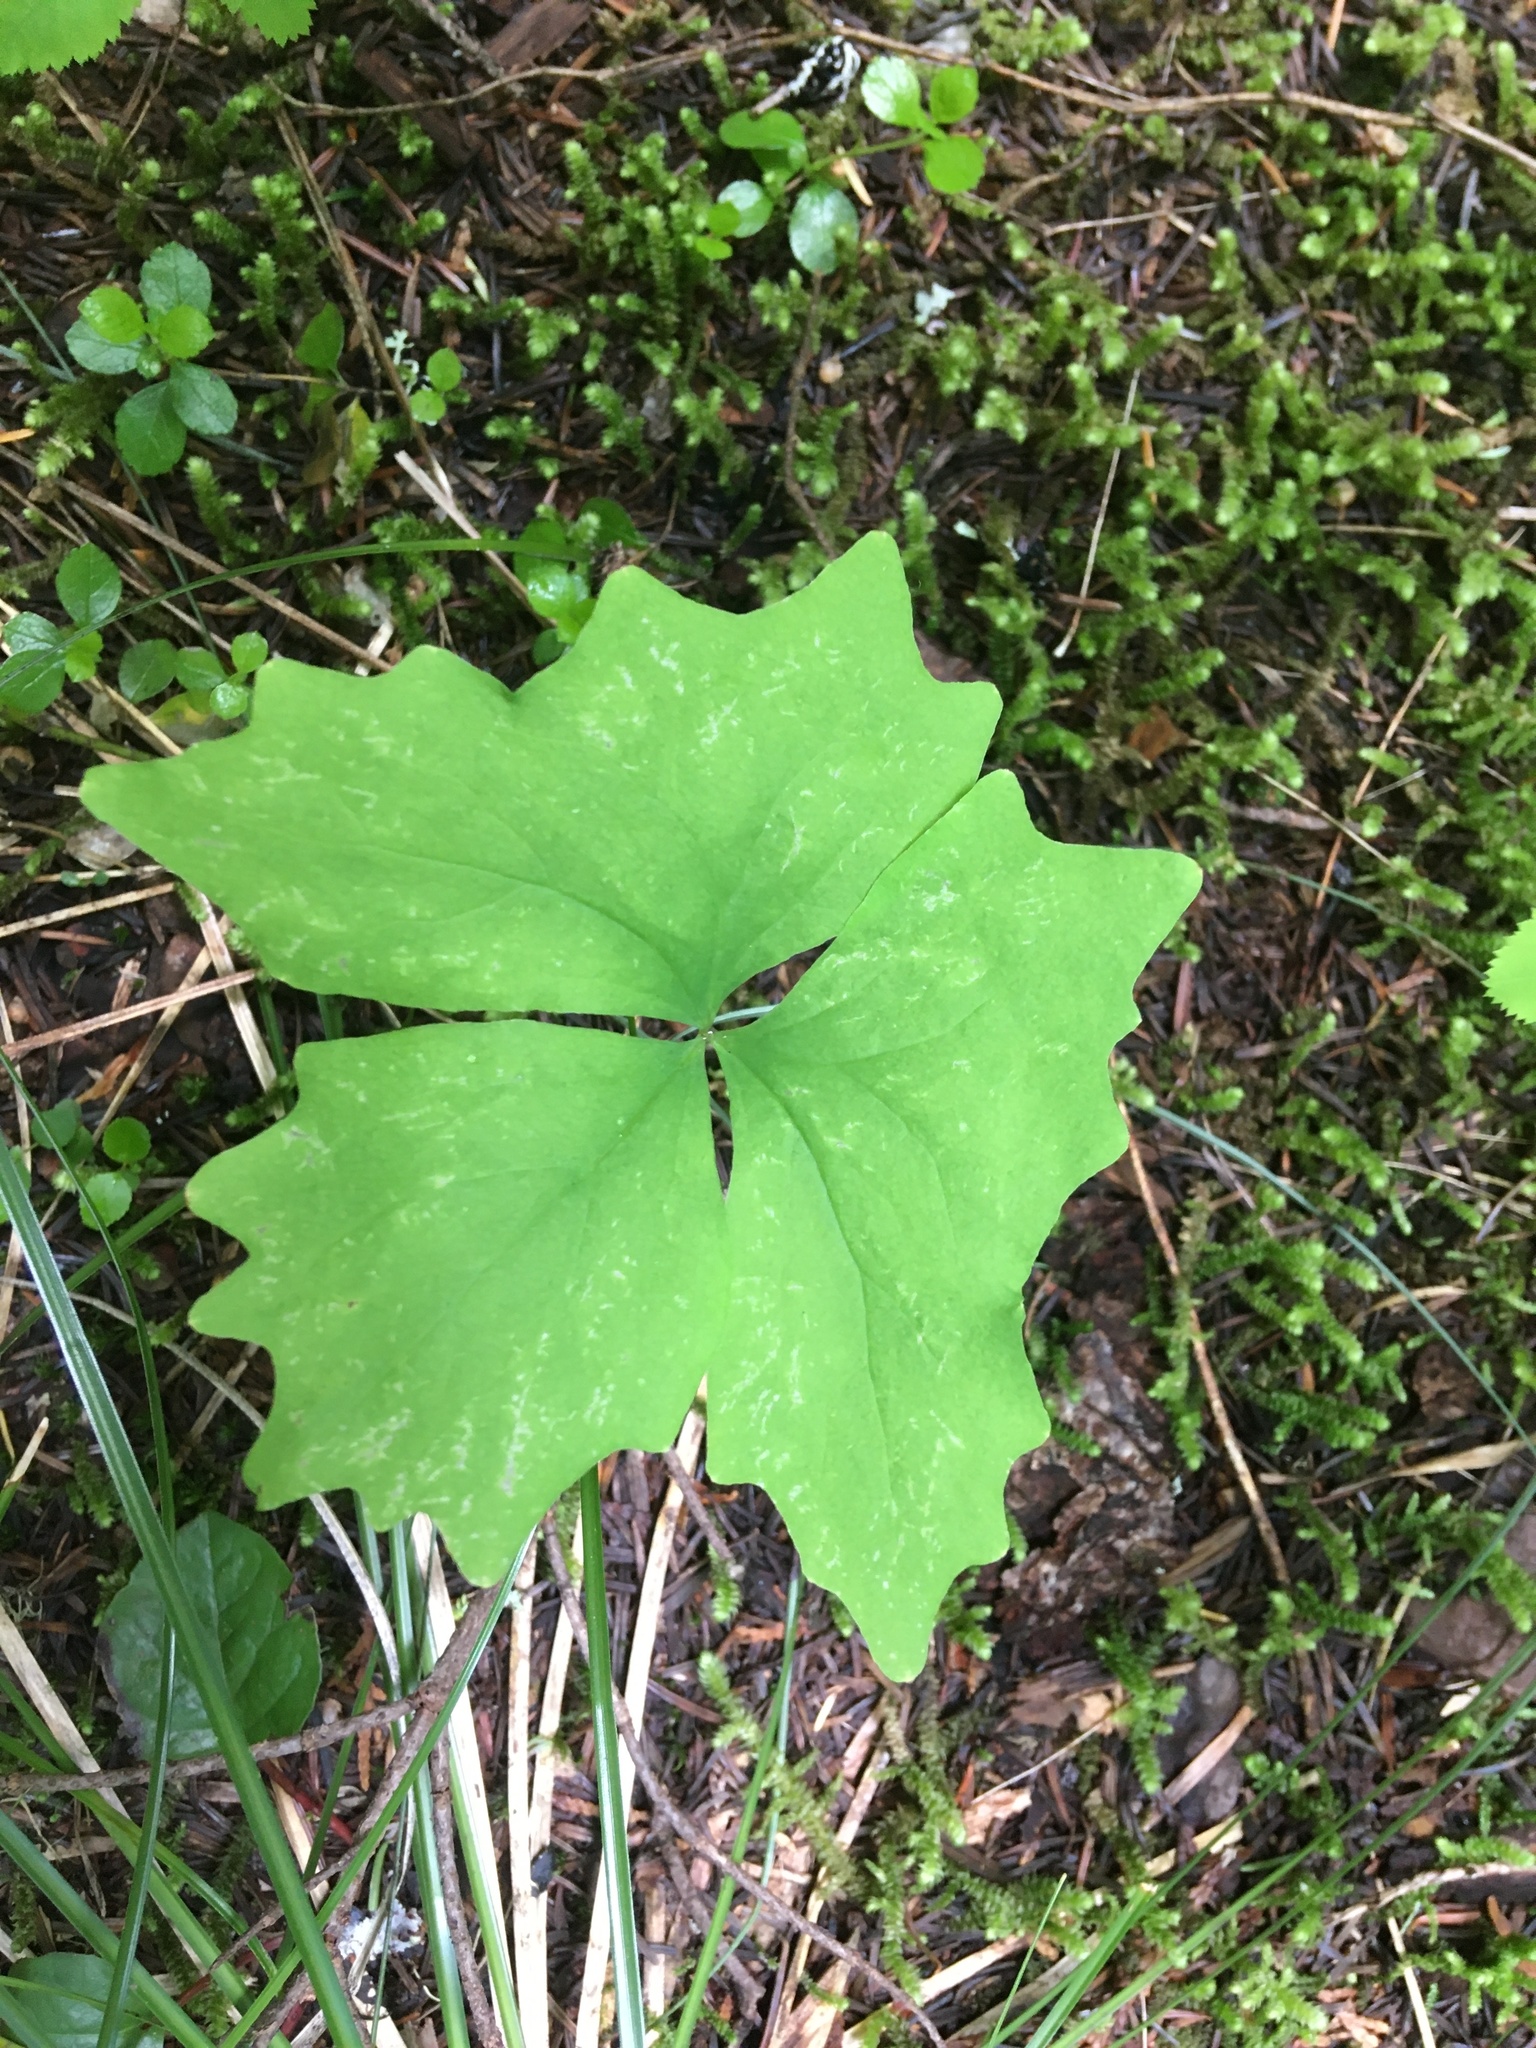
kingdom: Plantae
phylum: Tracheophyta
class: Magnoliopsida
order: Ranunculales
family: Berberidaceae
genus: Achlys
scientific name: Achlys triphylla
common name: Vanilla-leaf
